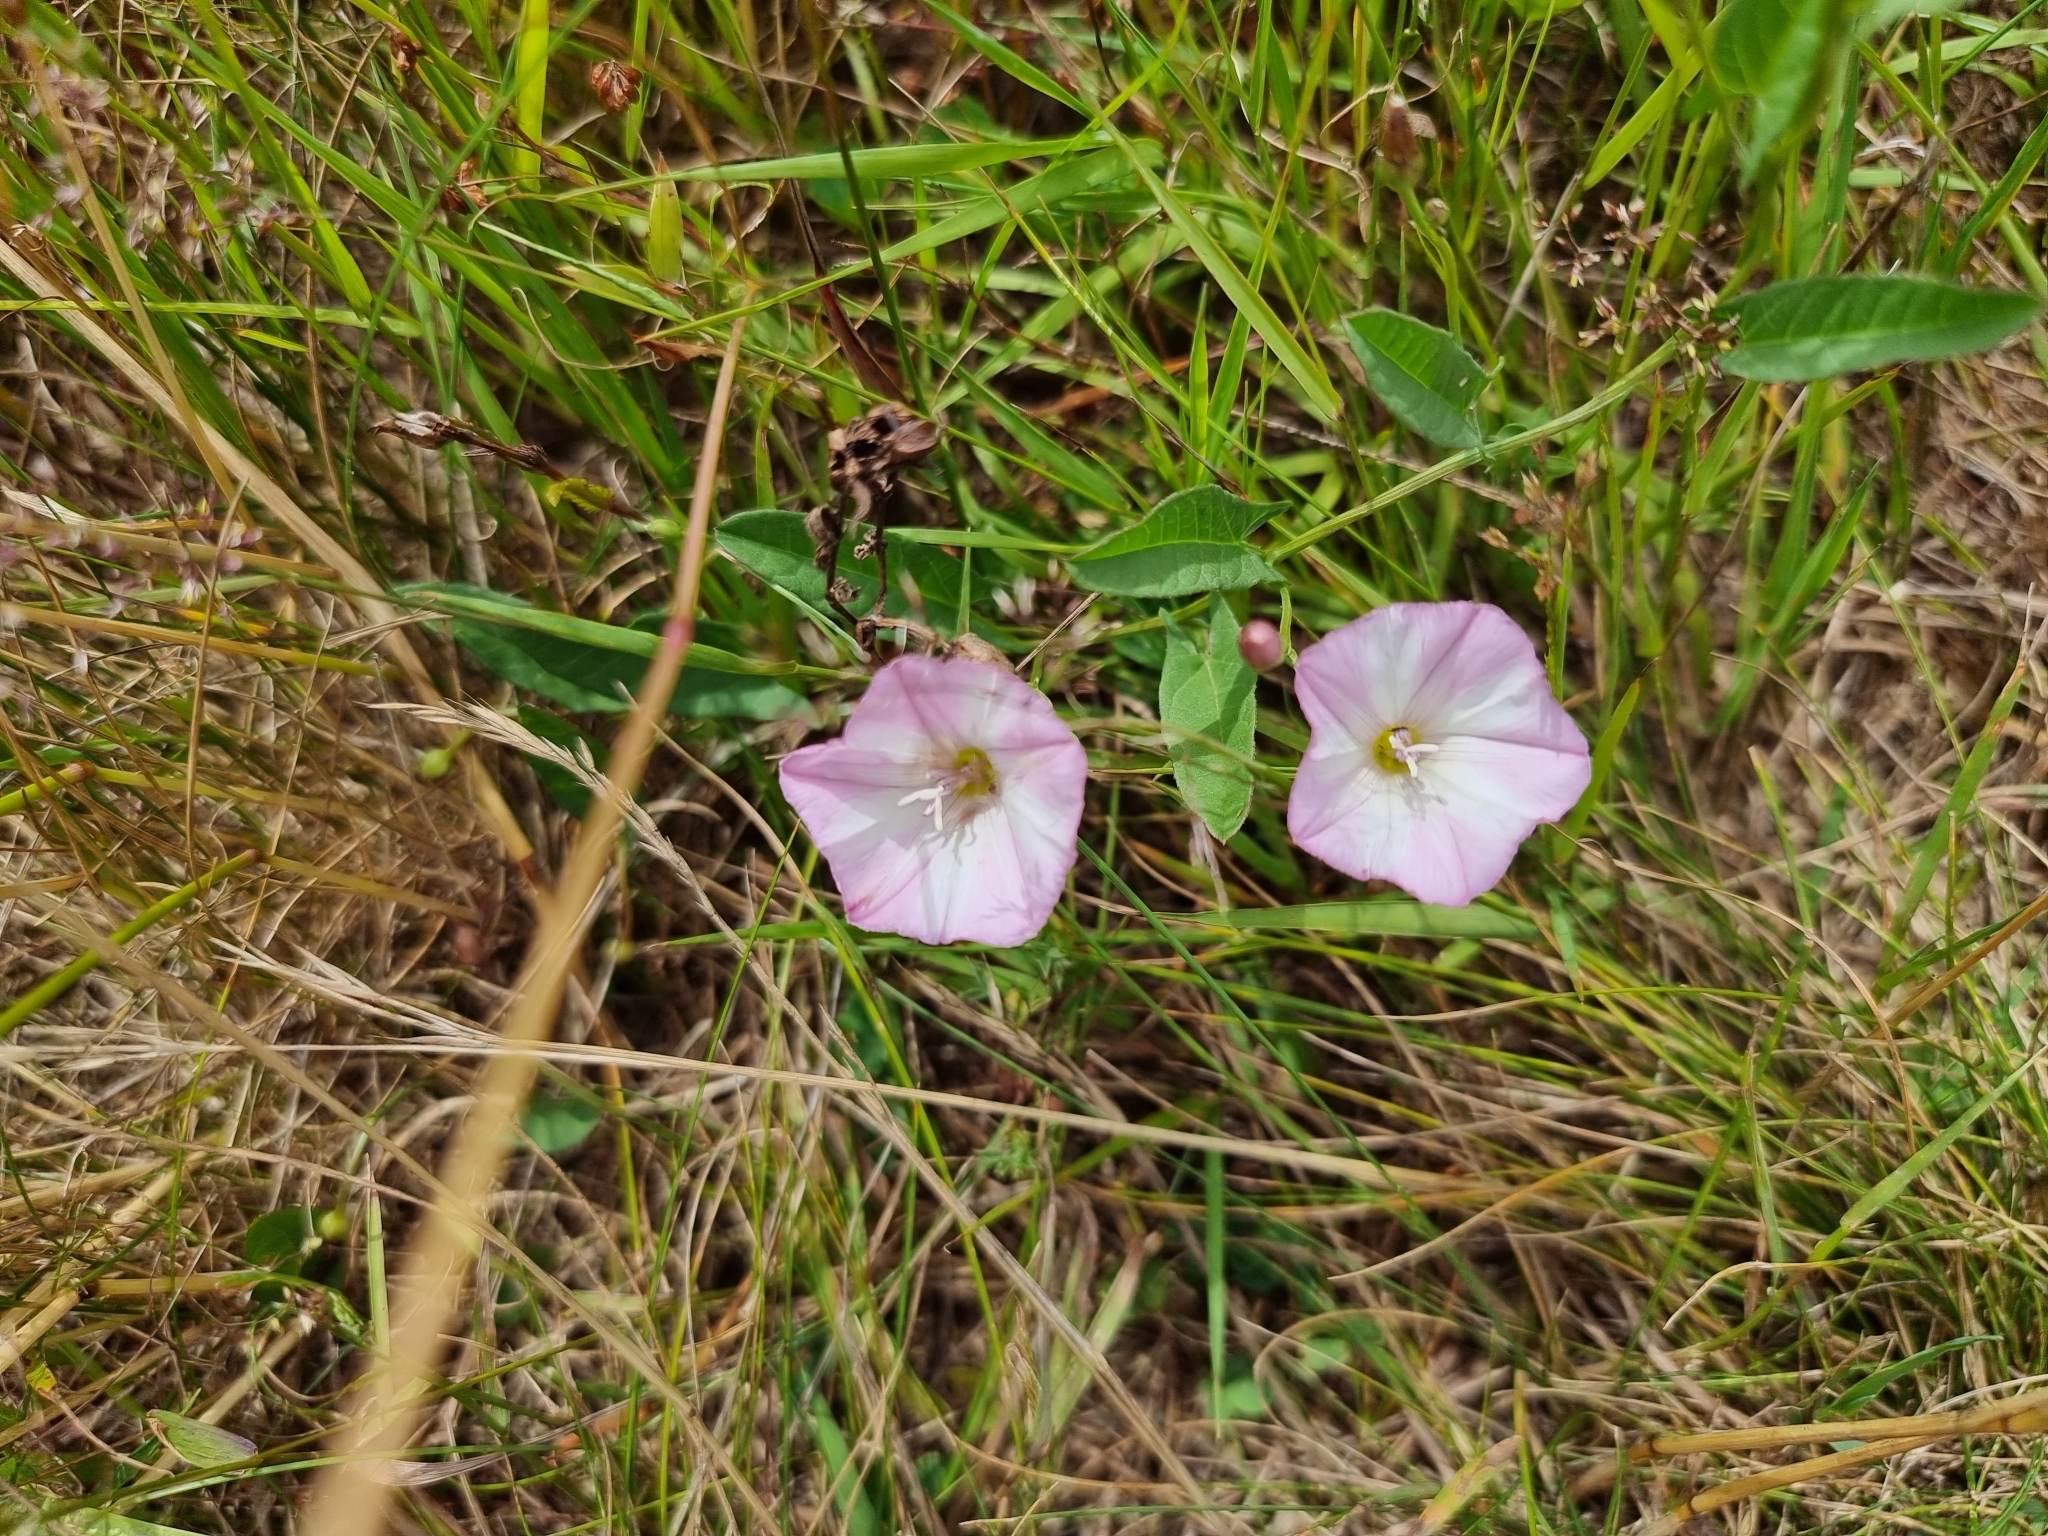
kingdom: Plantae
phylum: Tracheophyta
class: Magnoliopsida
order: Solanales
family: Convolvulaceae
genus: Convolvulus
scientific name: Convolvulus arvensis
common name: Field bindweed
